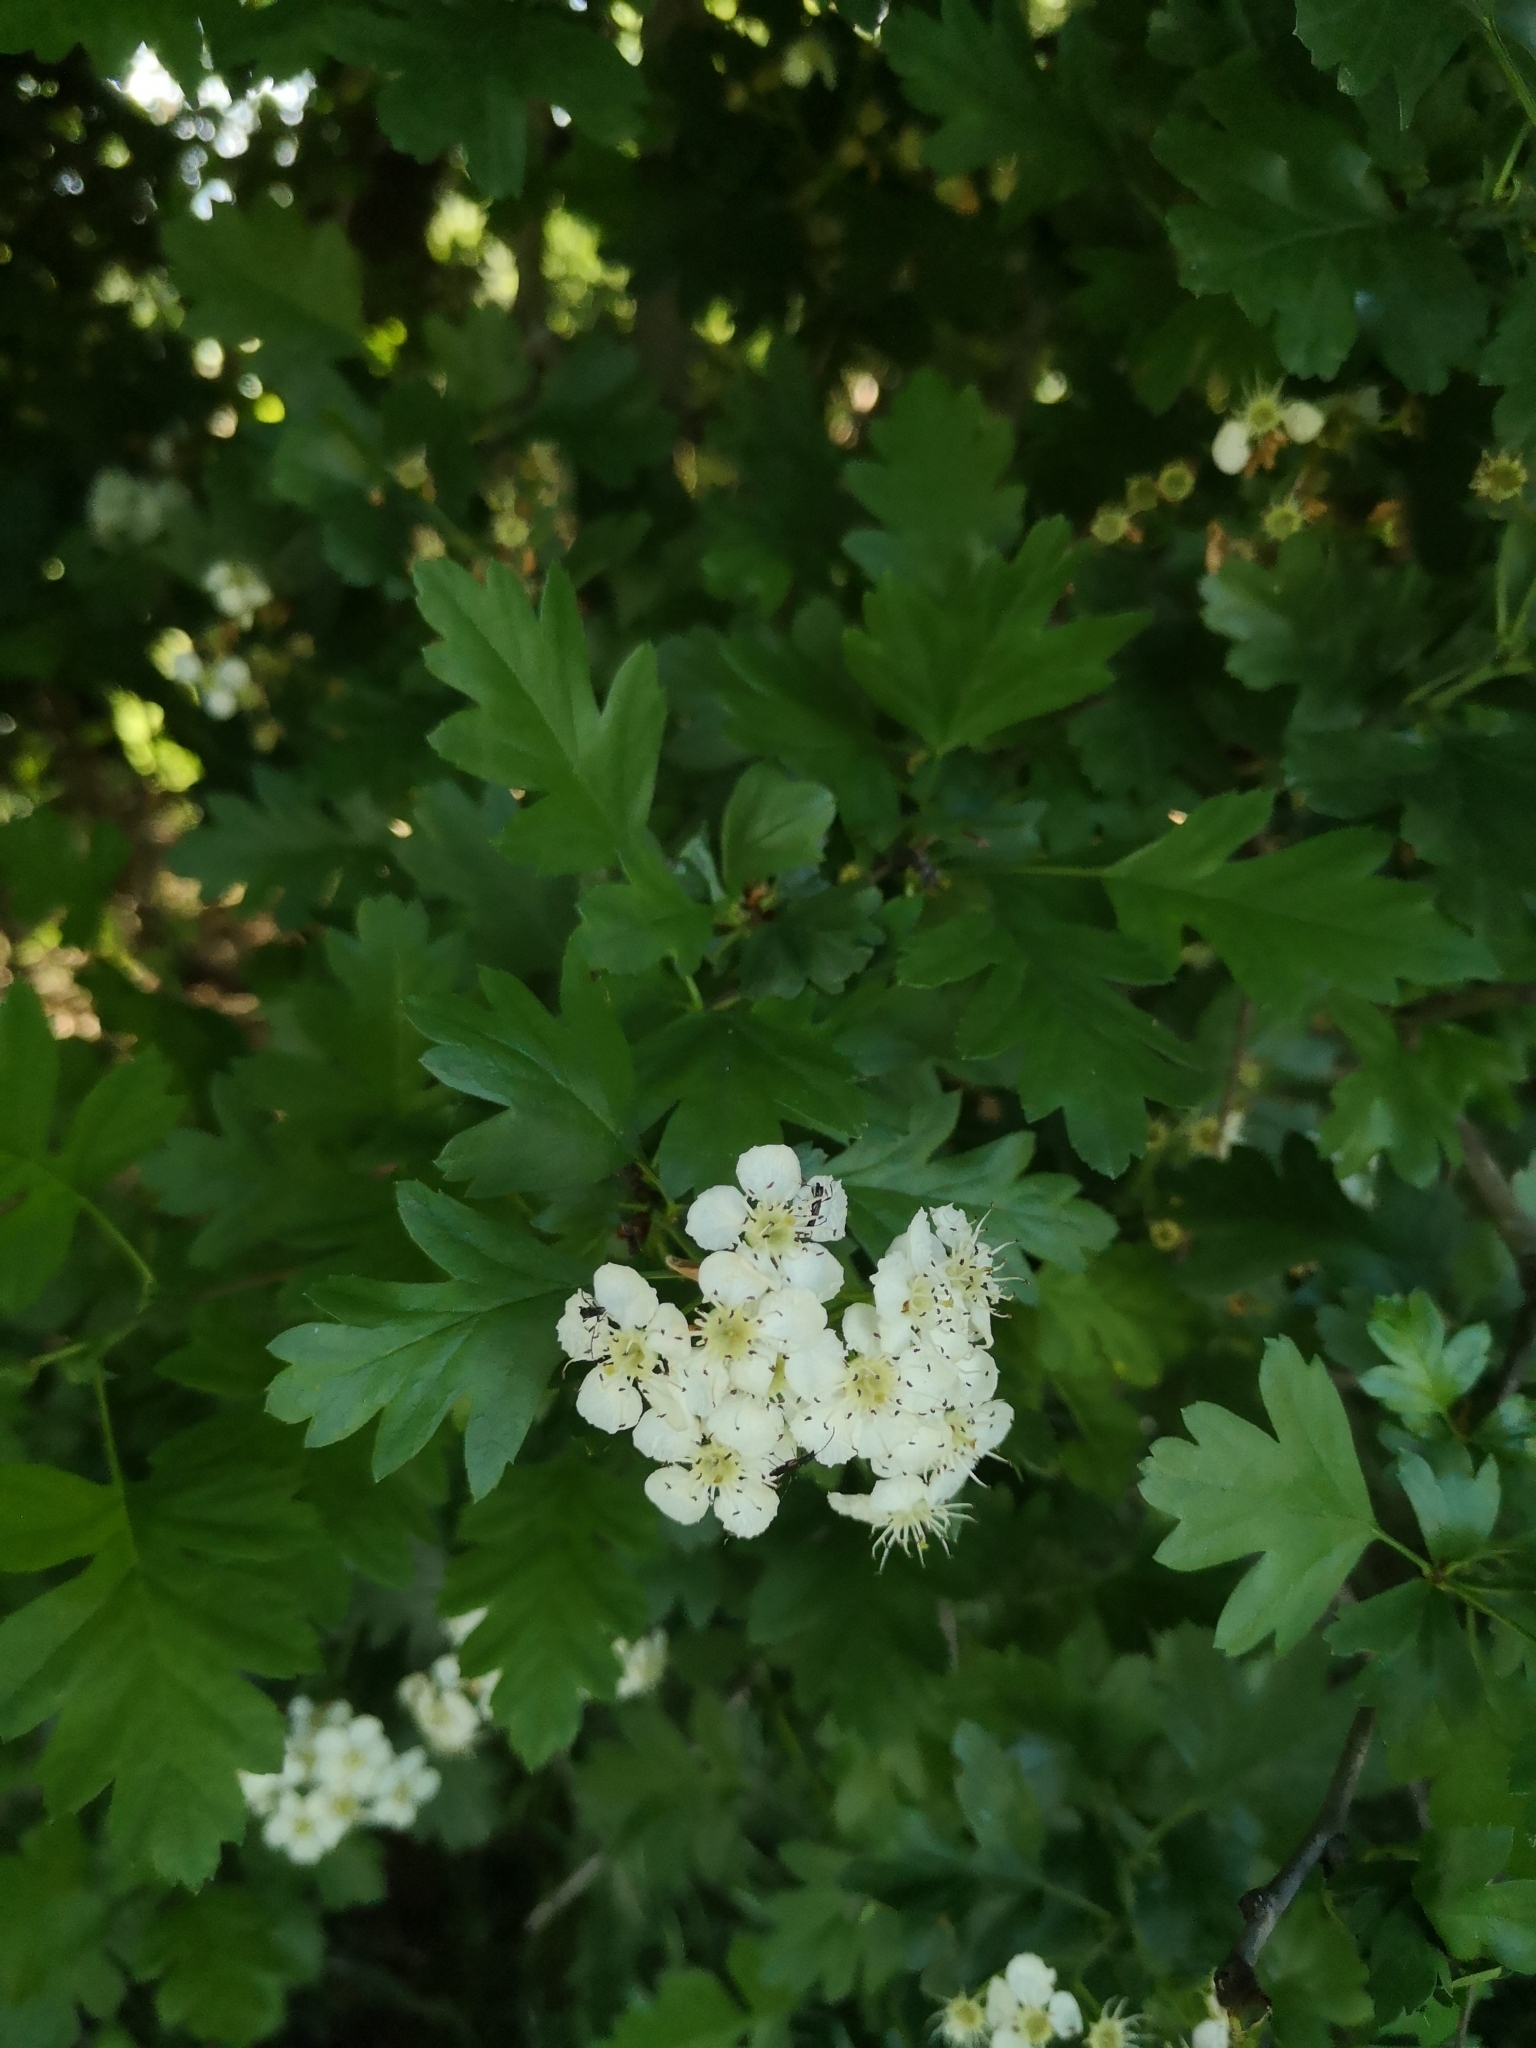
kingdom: Plantae
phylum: Tracheophyta
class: Magnoliopsida
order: Rosales
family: Rosaceae
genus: Crataegus
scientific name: Crataegus monogyna
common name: Hawthorn
